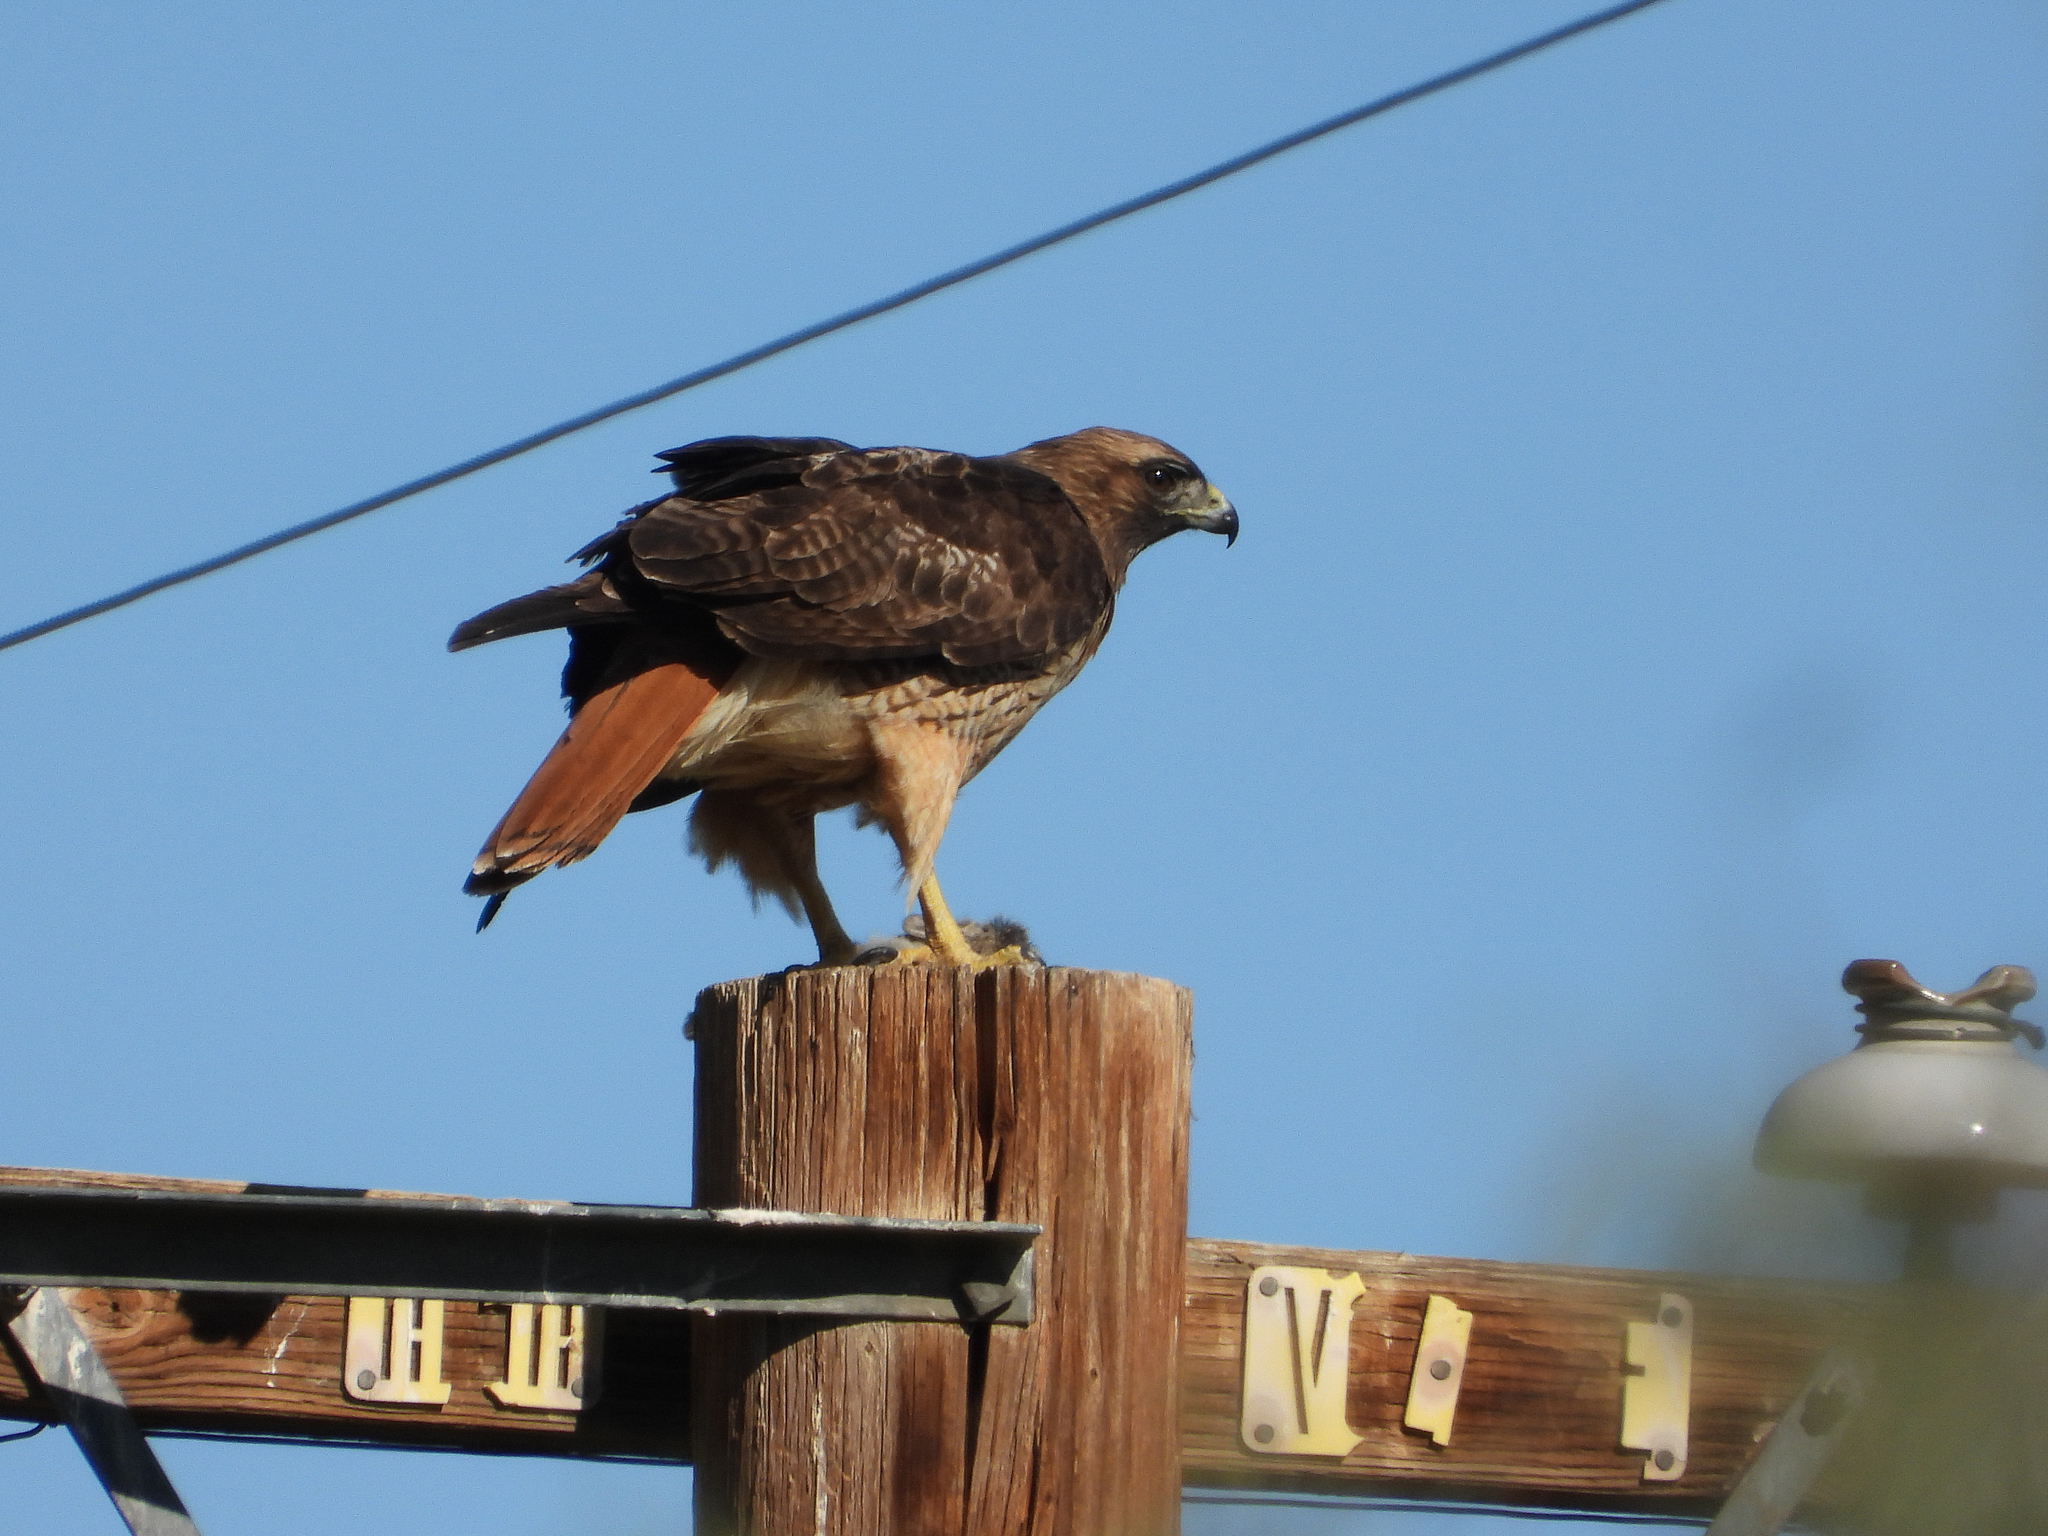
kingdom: Animalia
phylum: Chordata
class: Aves
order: Accipitriformes
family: Accipitridae
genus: Buteo
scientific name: Buteo jamaicensis
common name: Red-tailed hawk
